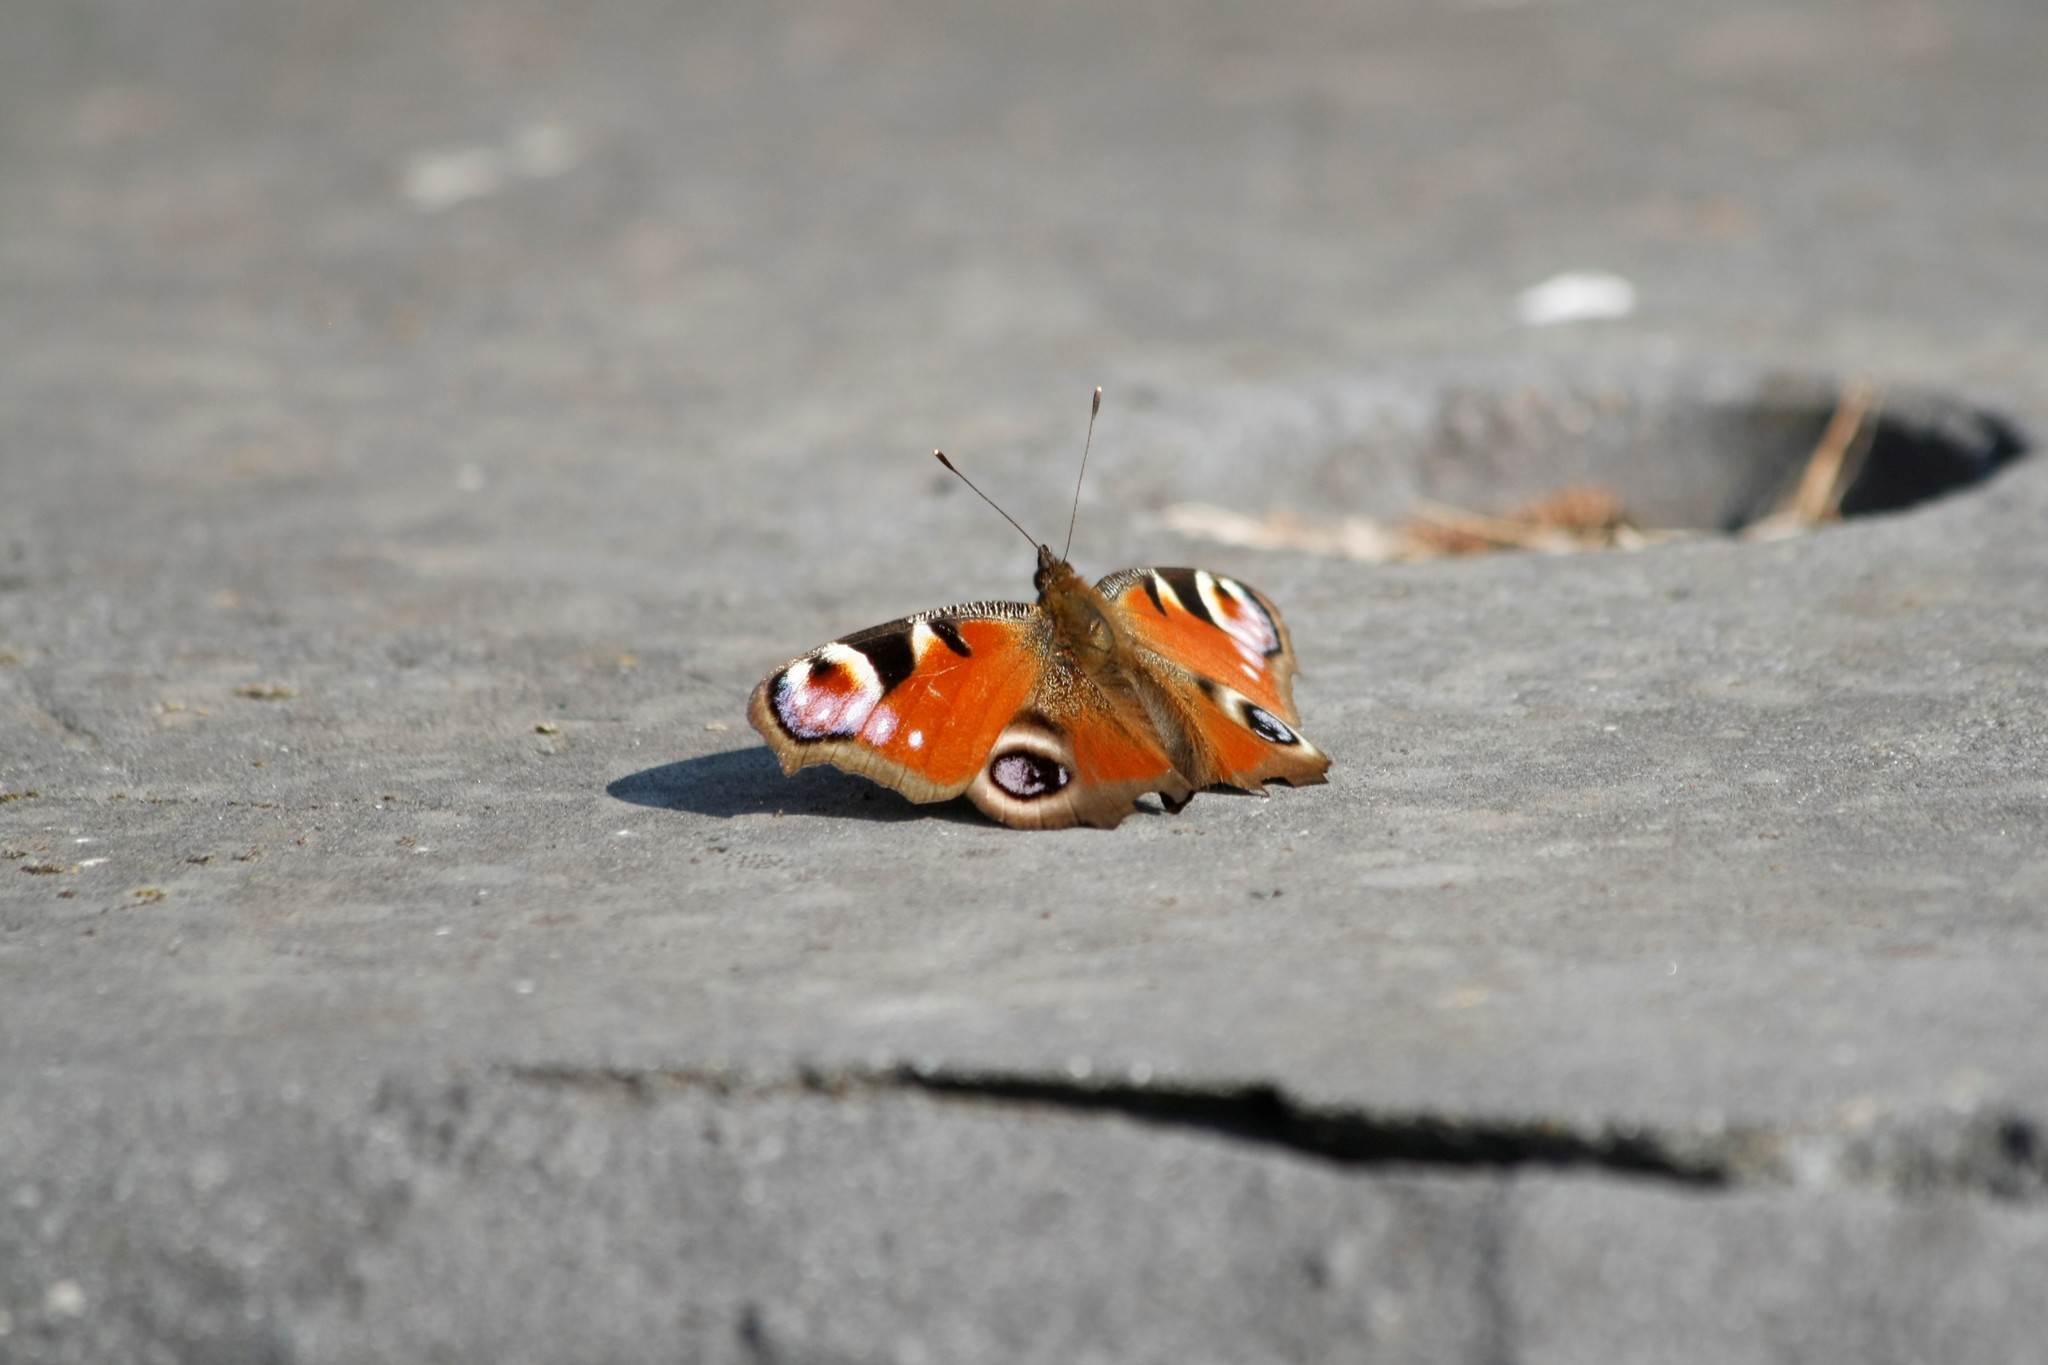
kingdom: Animalia
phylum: Arthropoda
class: Insecta
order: Lepidoptera
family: Nymphalidae
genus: Aglais
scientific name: Aglais io
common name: Peacock
